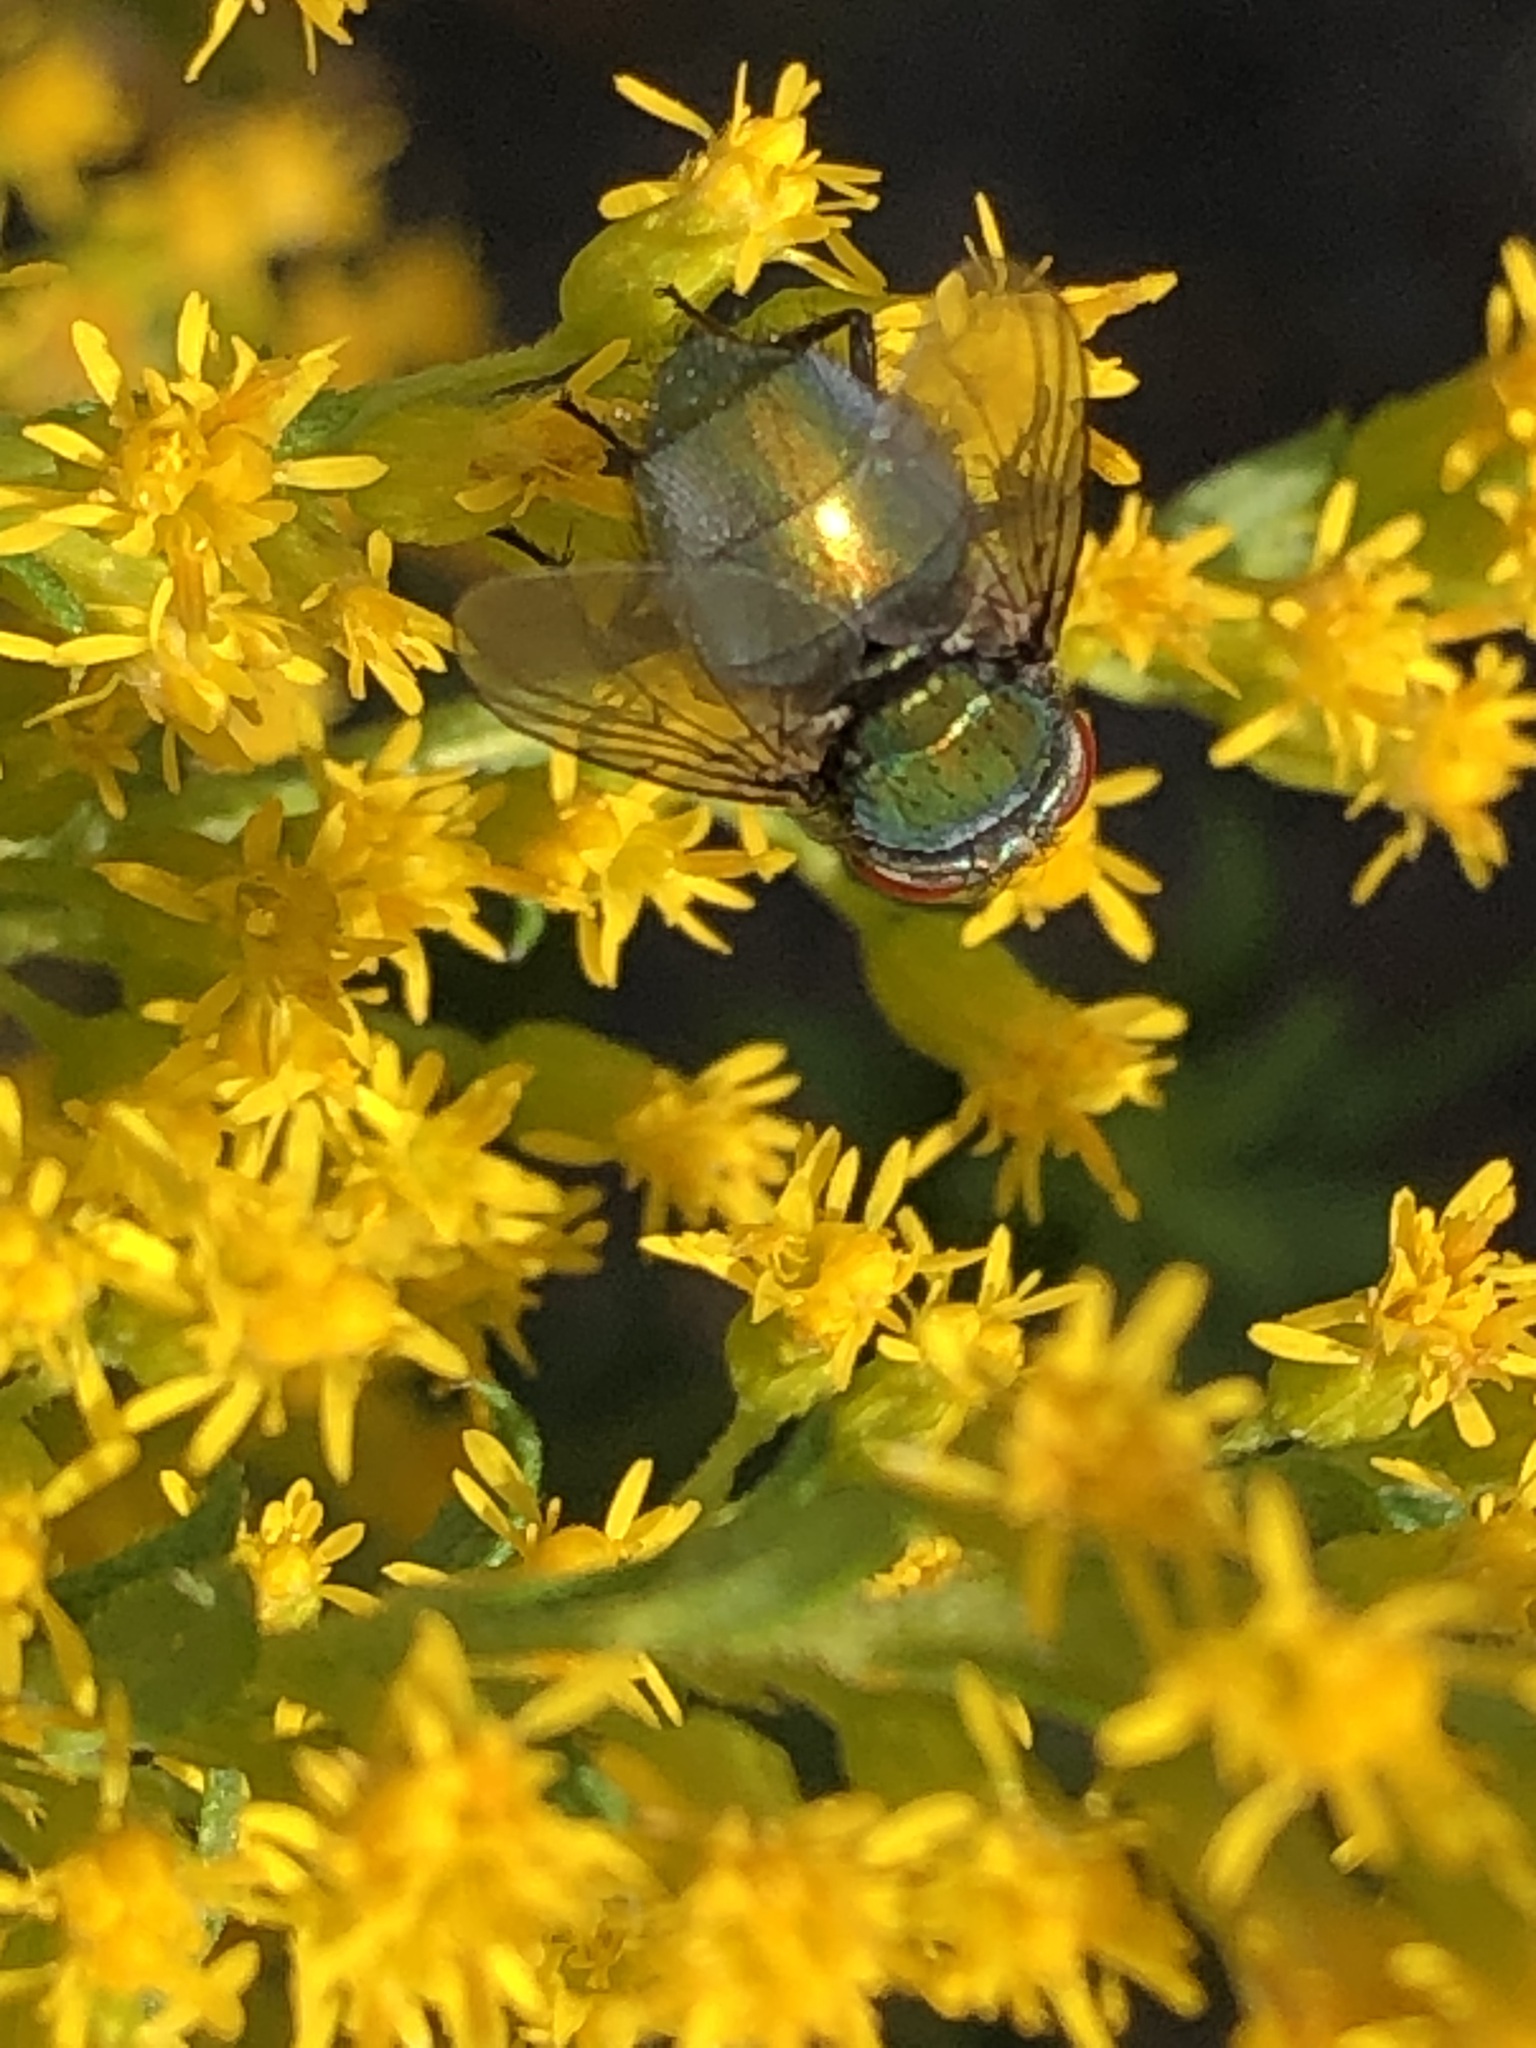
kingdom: Animalia
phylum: Arthropoda
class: Insecta
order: Diptera
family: Calliphoridae
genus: Lucilia
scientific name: Lucilia sericata
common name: Blow fly
